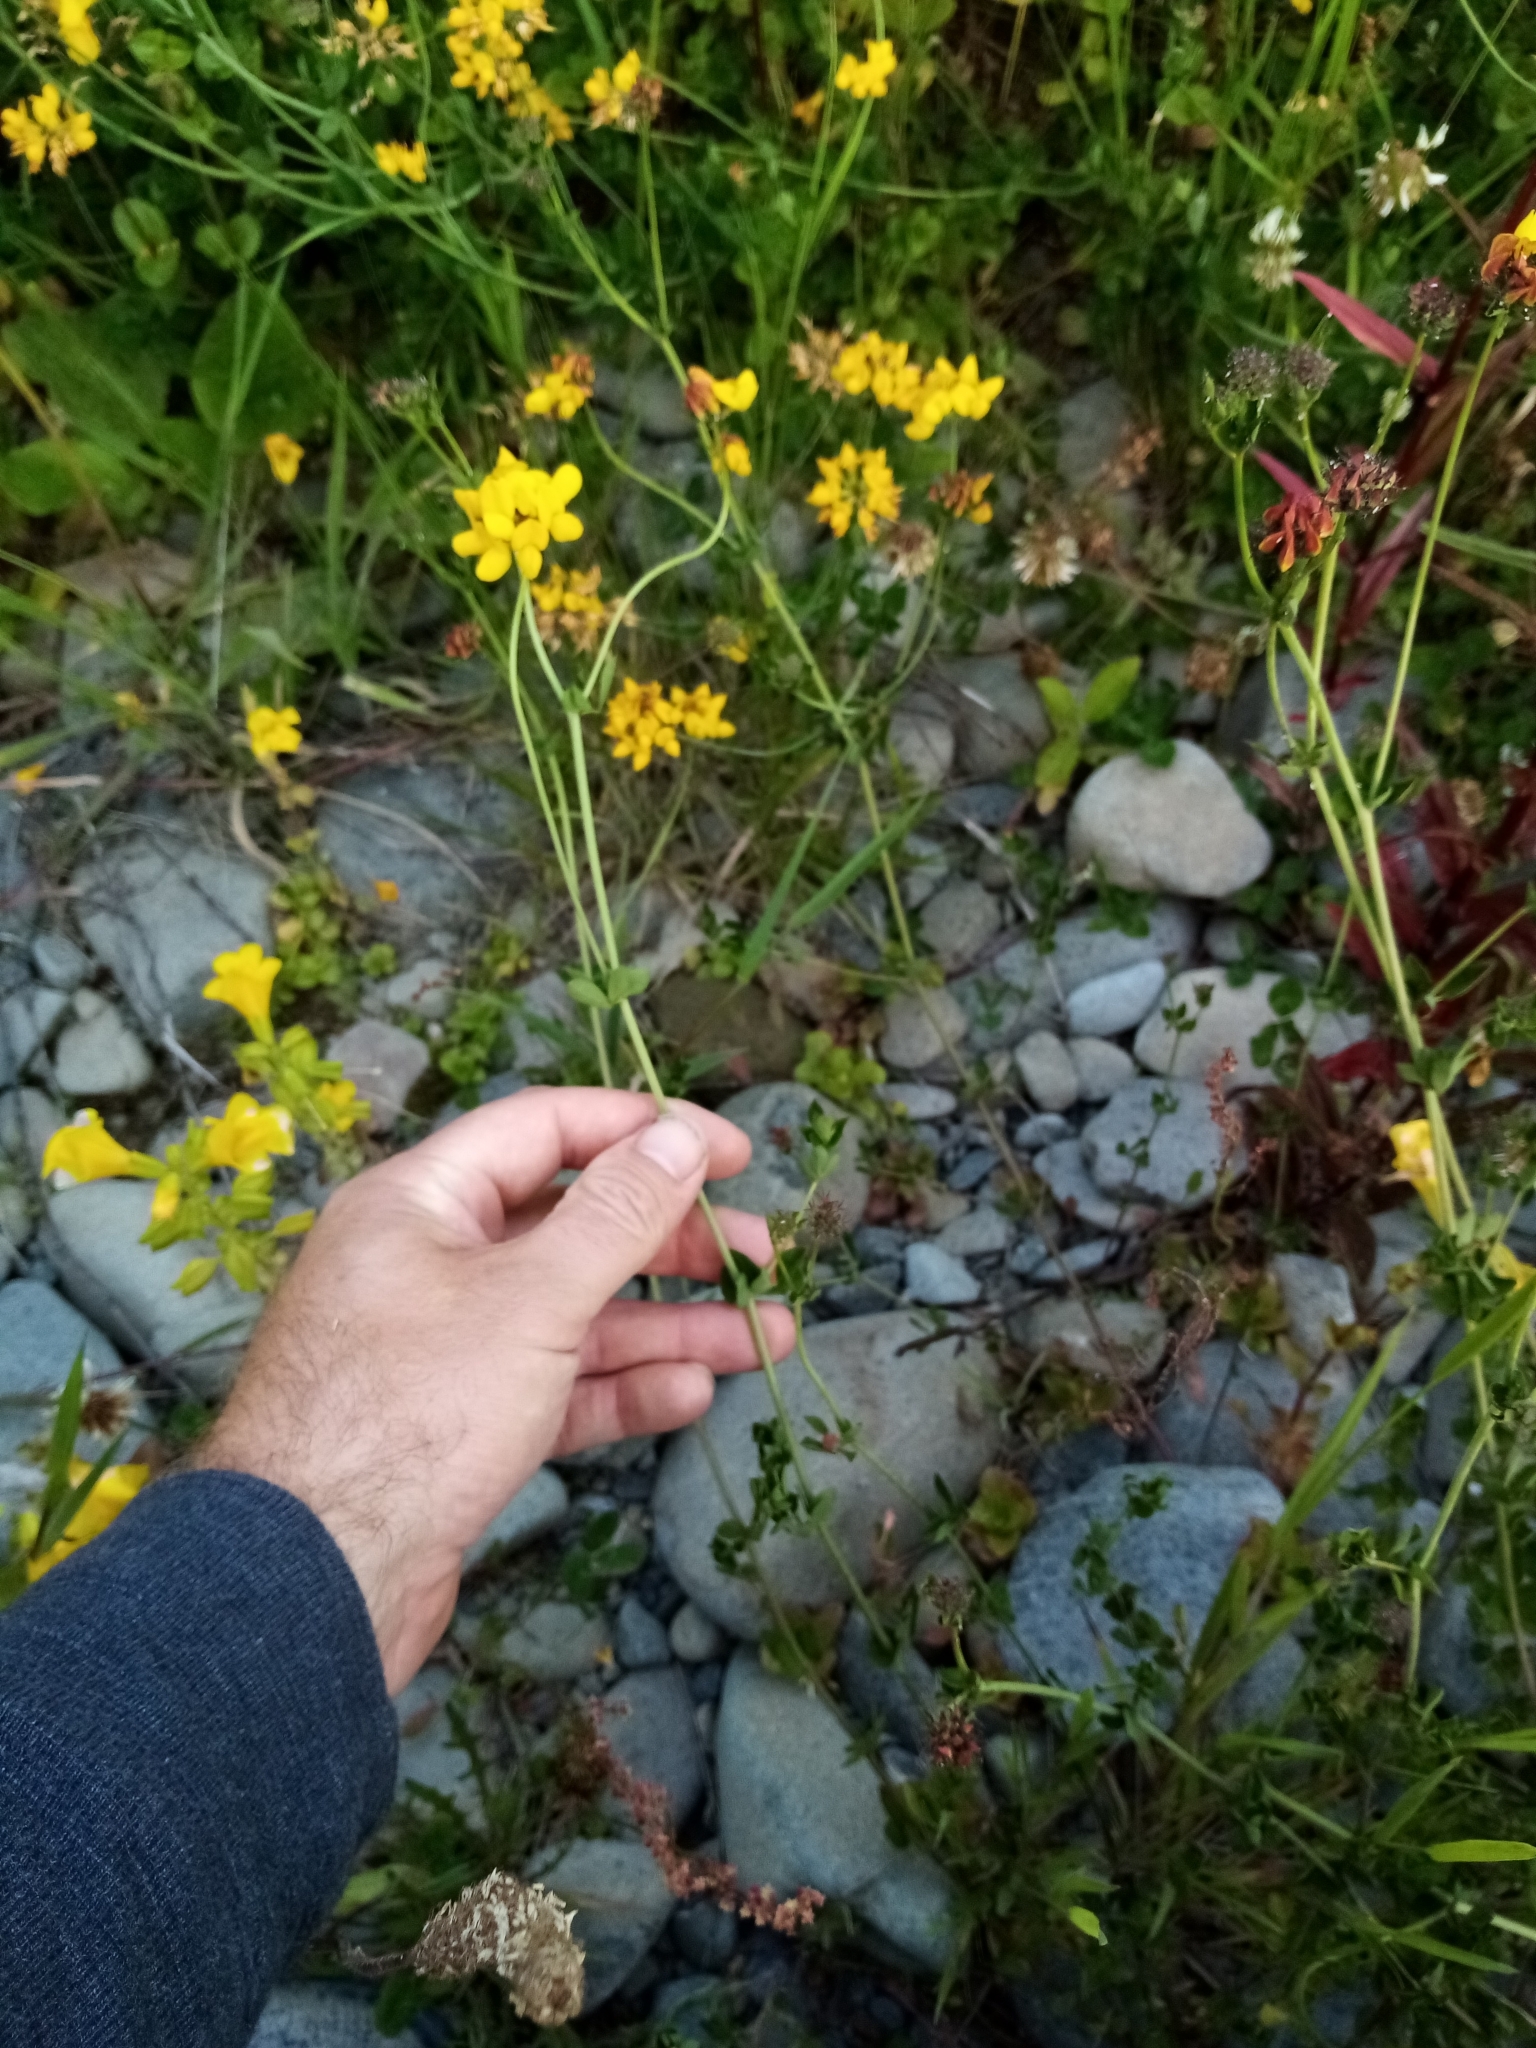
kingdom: Plantae
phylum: Tracheophyta
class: Magnoliopsida
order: Fabales
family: Fabaceae
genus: Lotus
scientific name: Lotus pedunculatus
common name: Greater birdsfoot-trefoil
